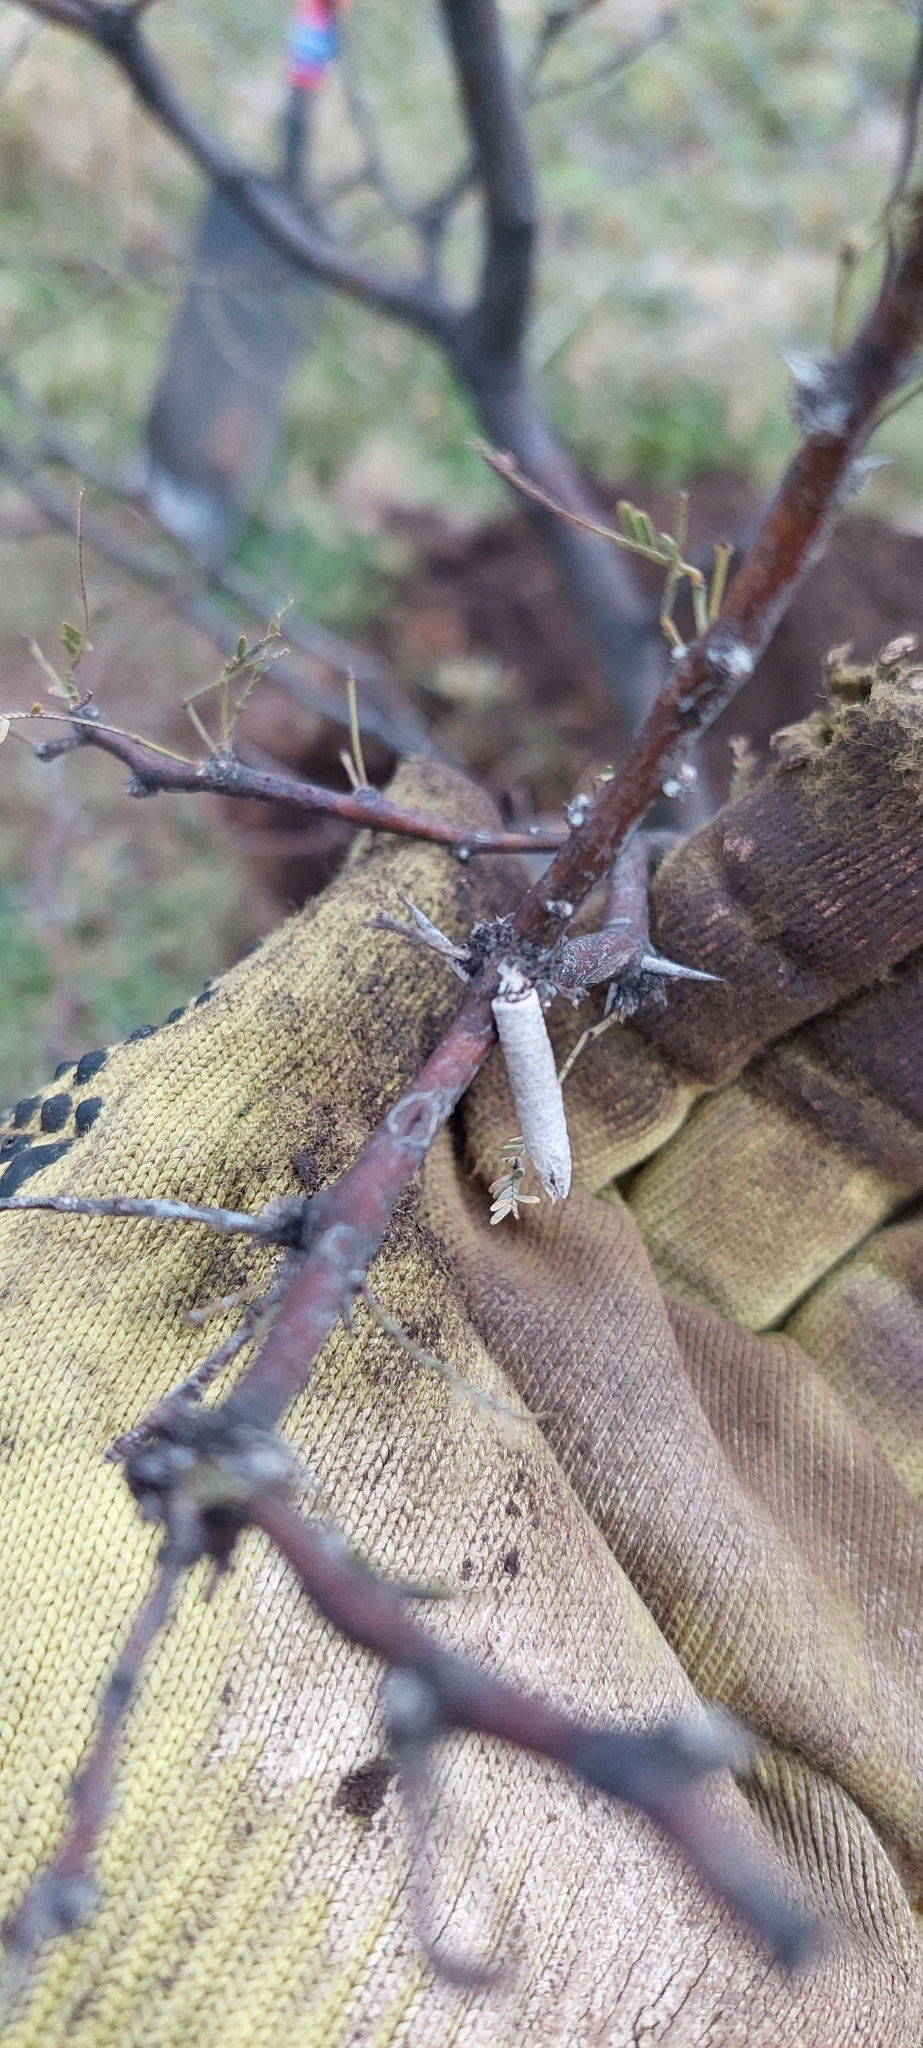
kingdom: Animalia
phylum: Arthropoda
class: Insecta
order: Lepidoptera
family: Psychidae
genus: Oiketicus
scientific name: Oiketicus geyeri
